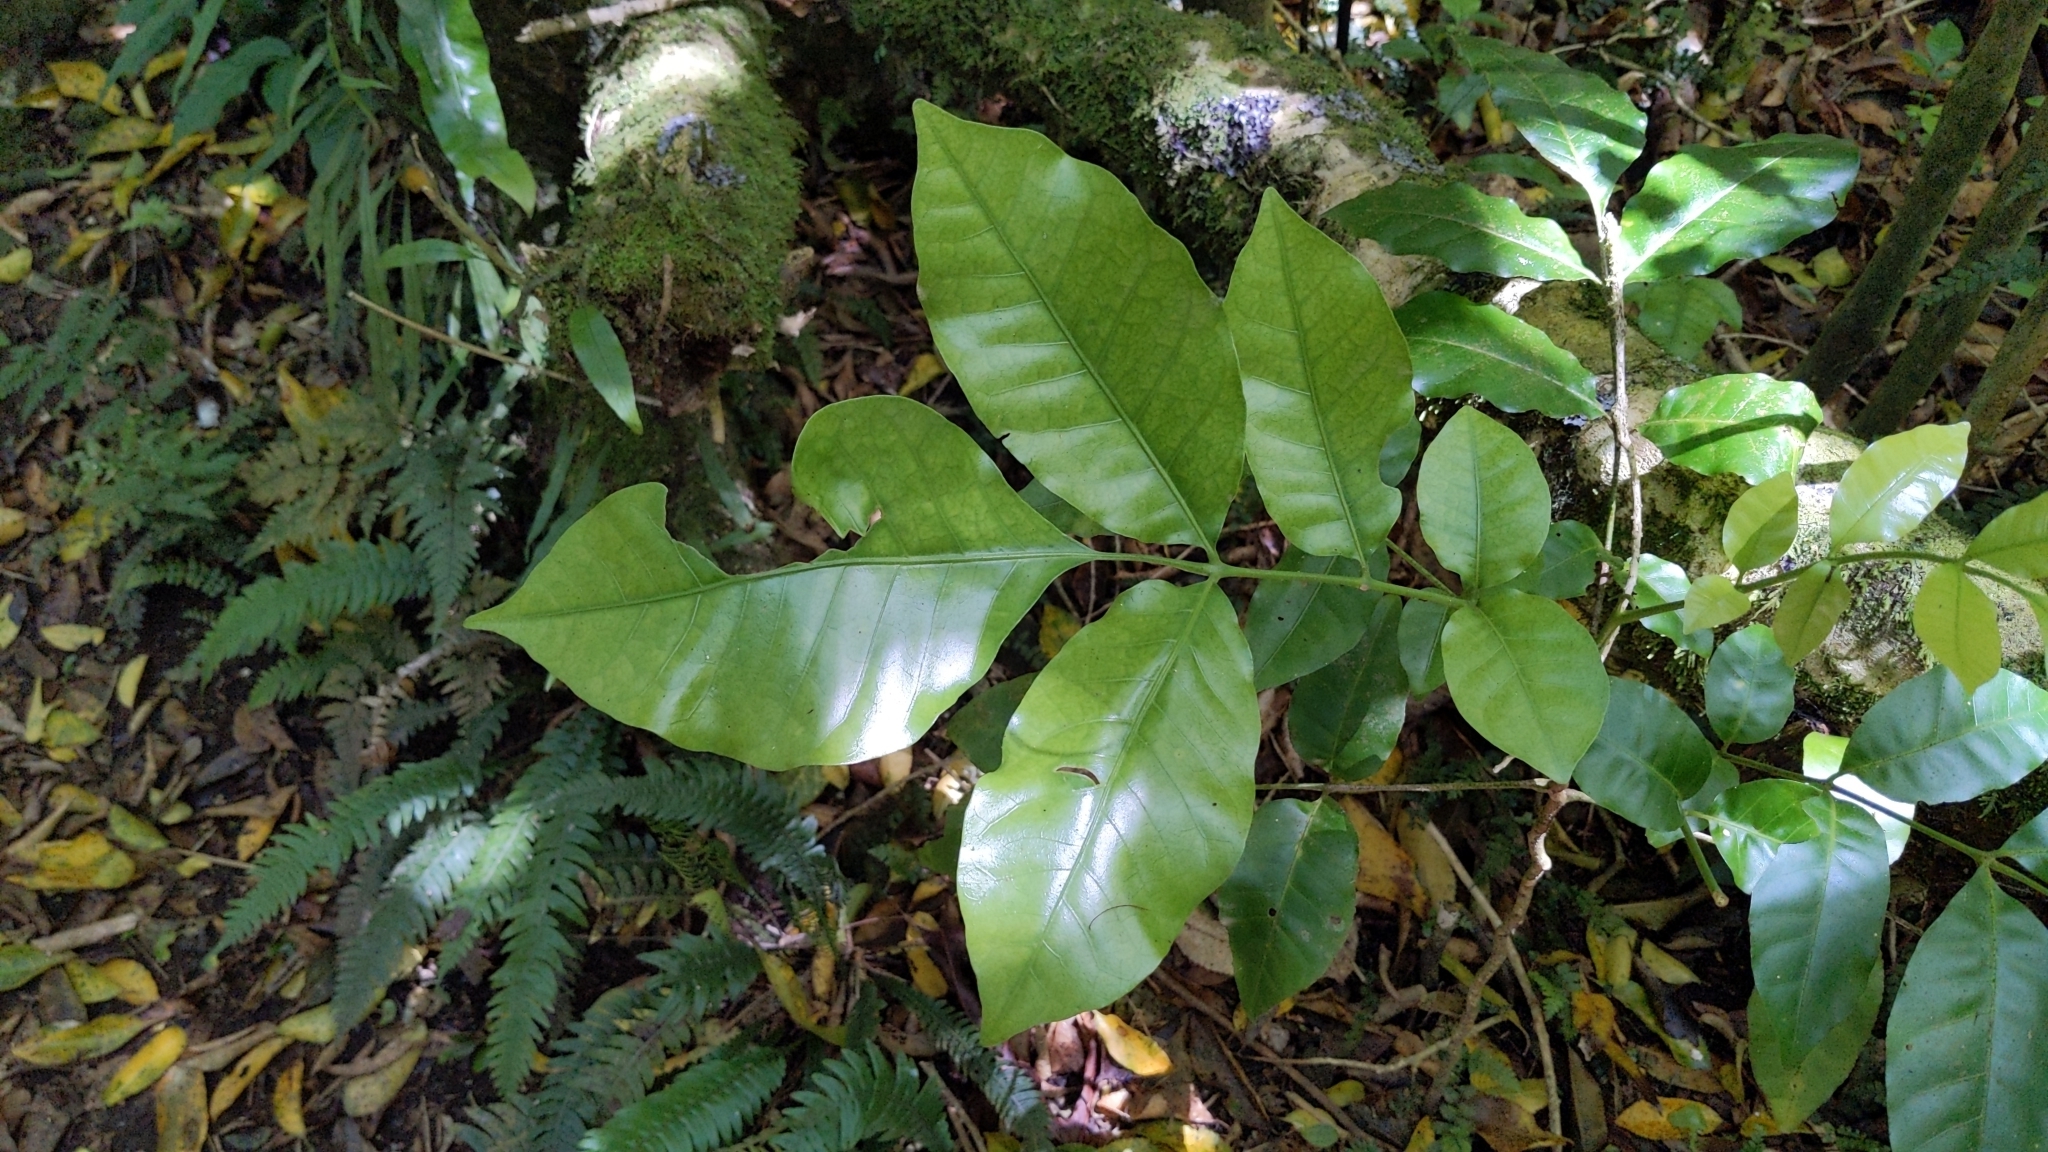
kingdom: Plantae
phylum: Tracheophyta
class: Magnoliopsida
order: Sapindales
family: Meliaceae
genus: Didymocheton
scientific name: Didymocheton spectabilis
